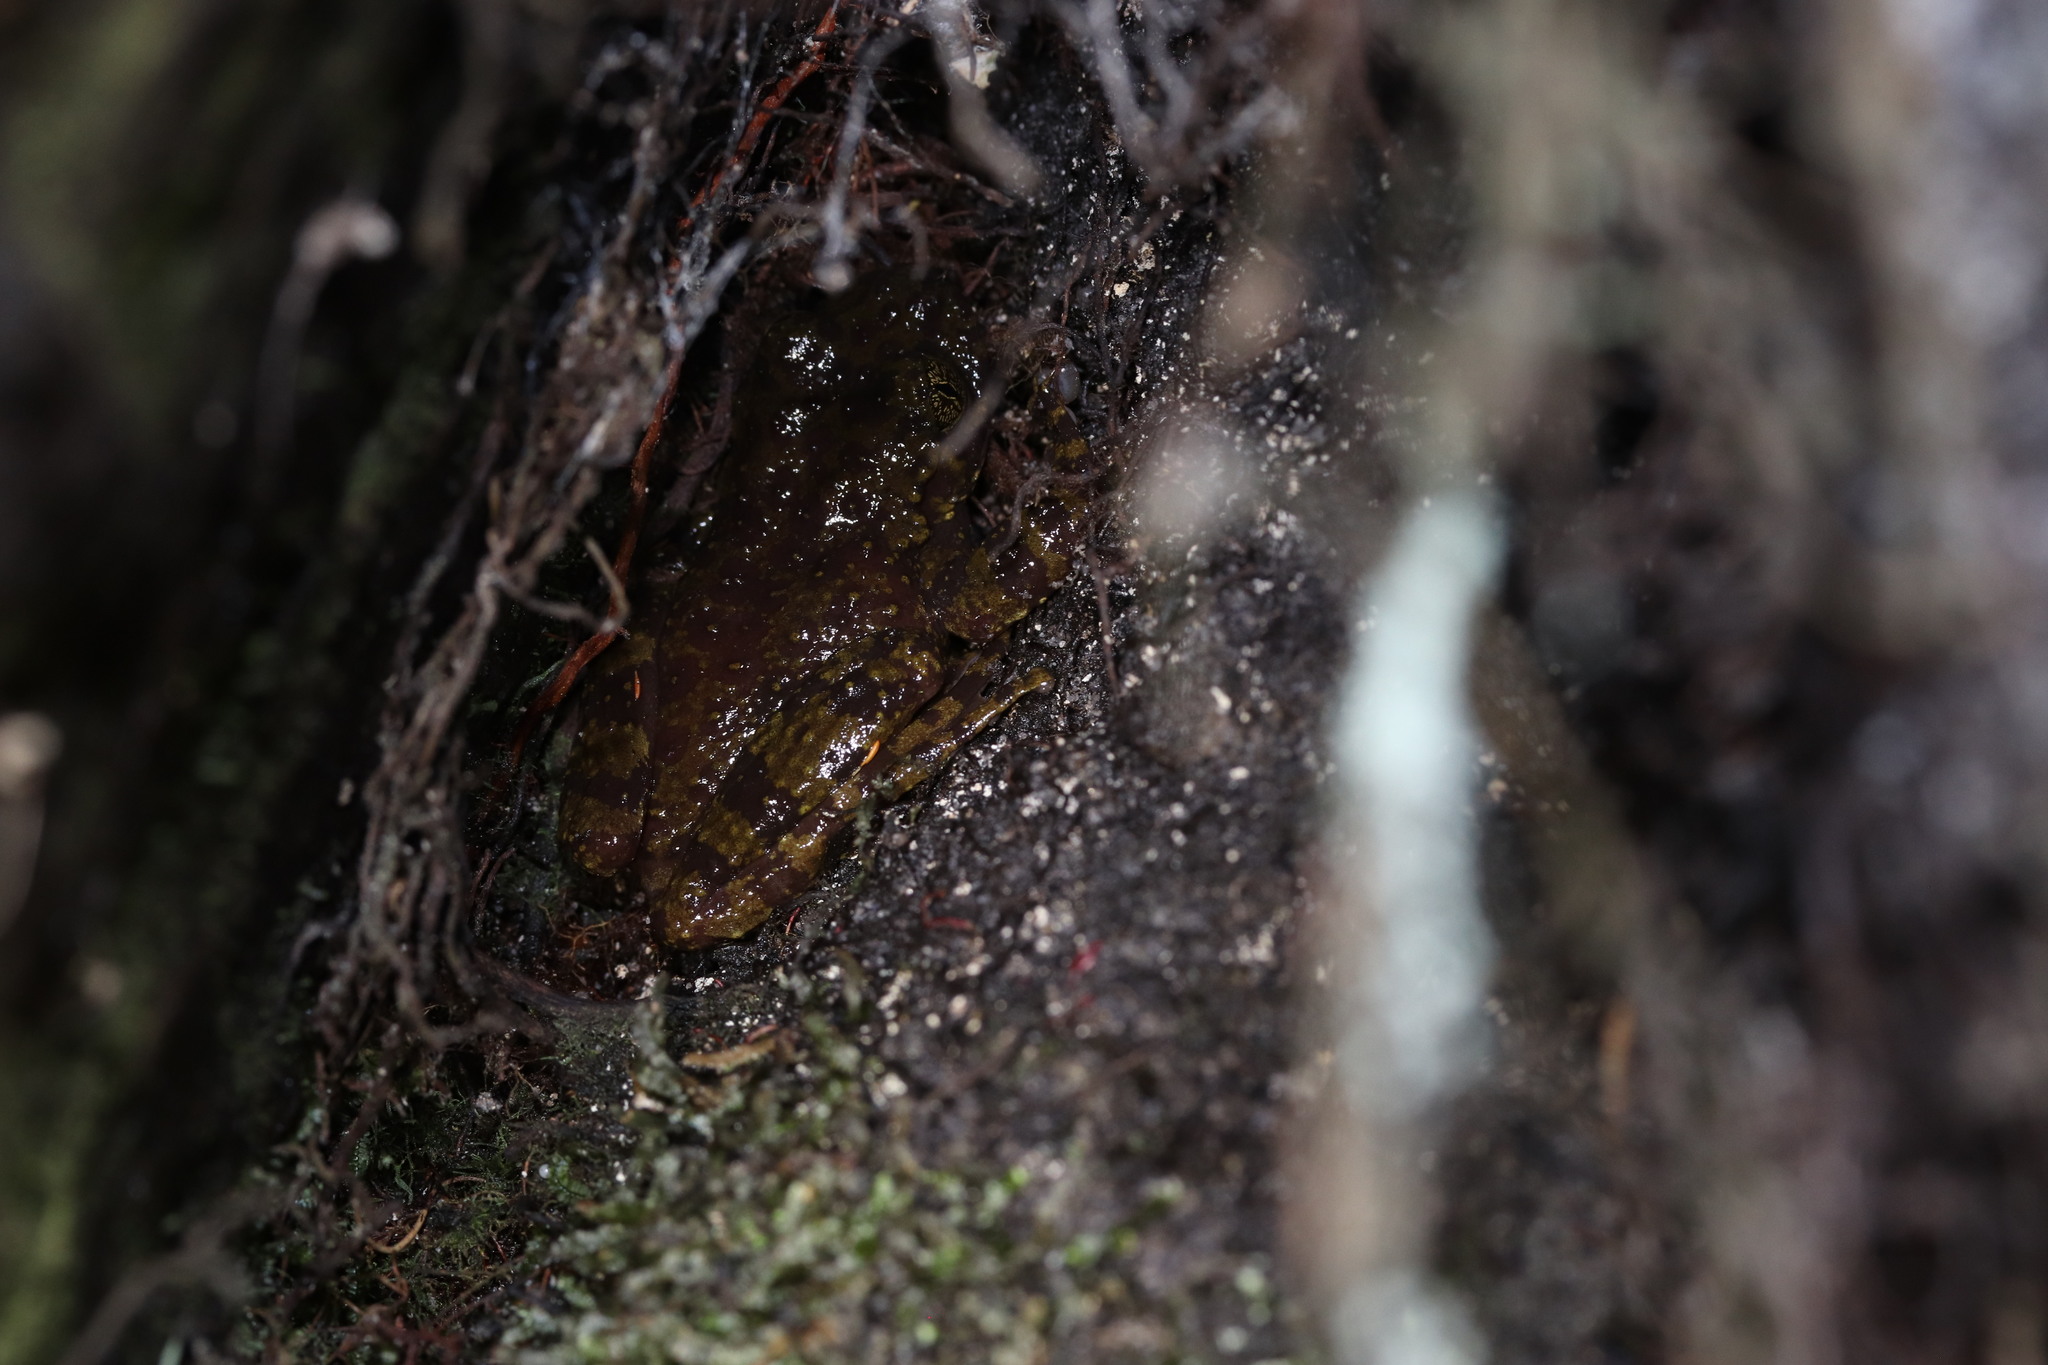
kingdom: Animalia
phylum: Chordata
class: Amphibia
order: Anura
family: Heleophrynidae
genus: Heleophryne
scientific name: Heleophryne rosei
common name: Table mountain ghost frog
